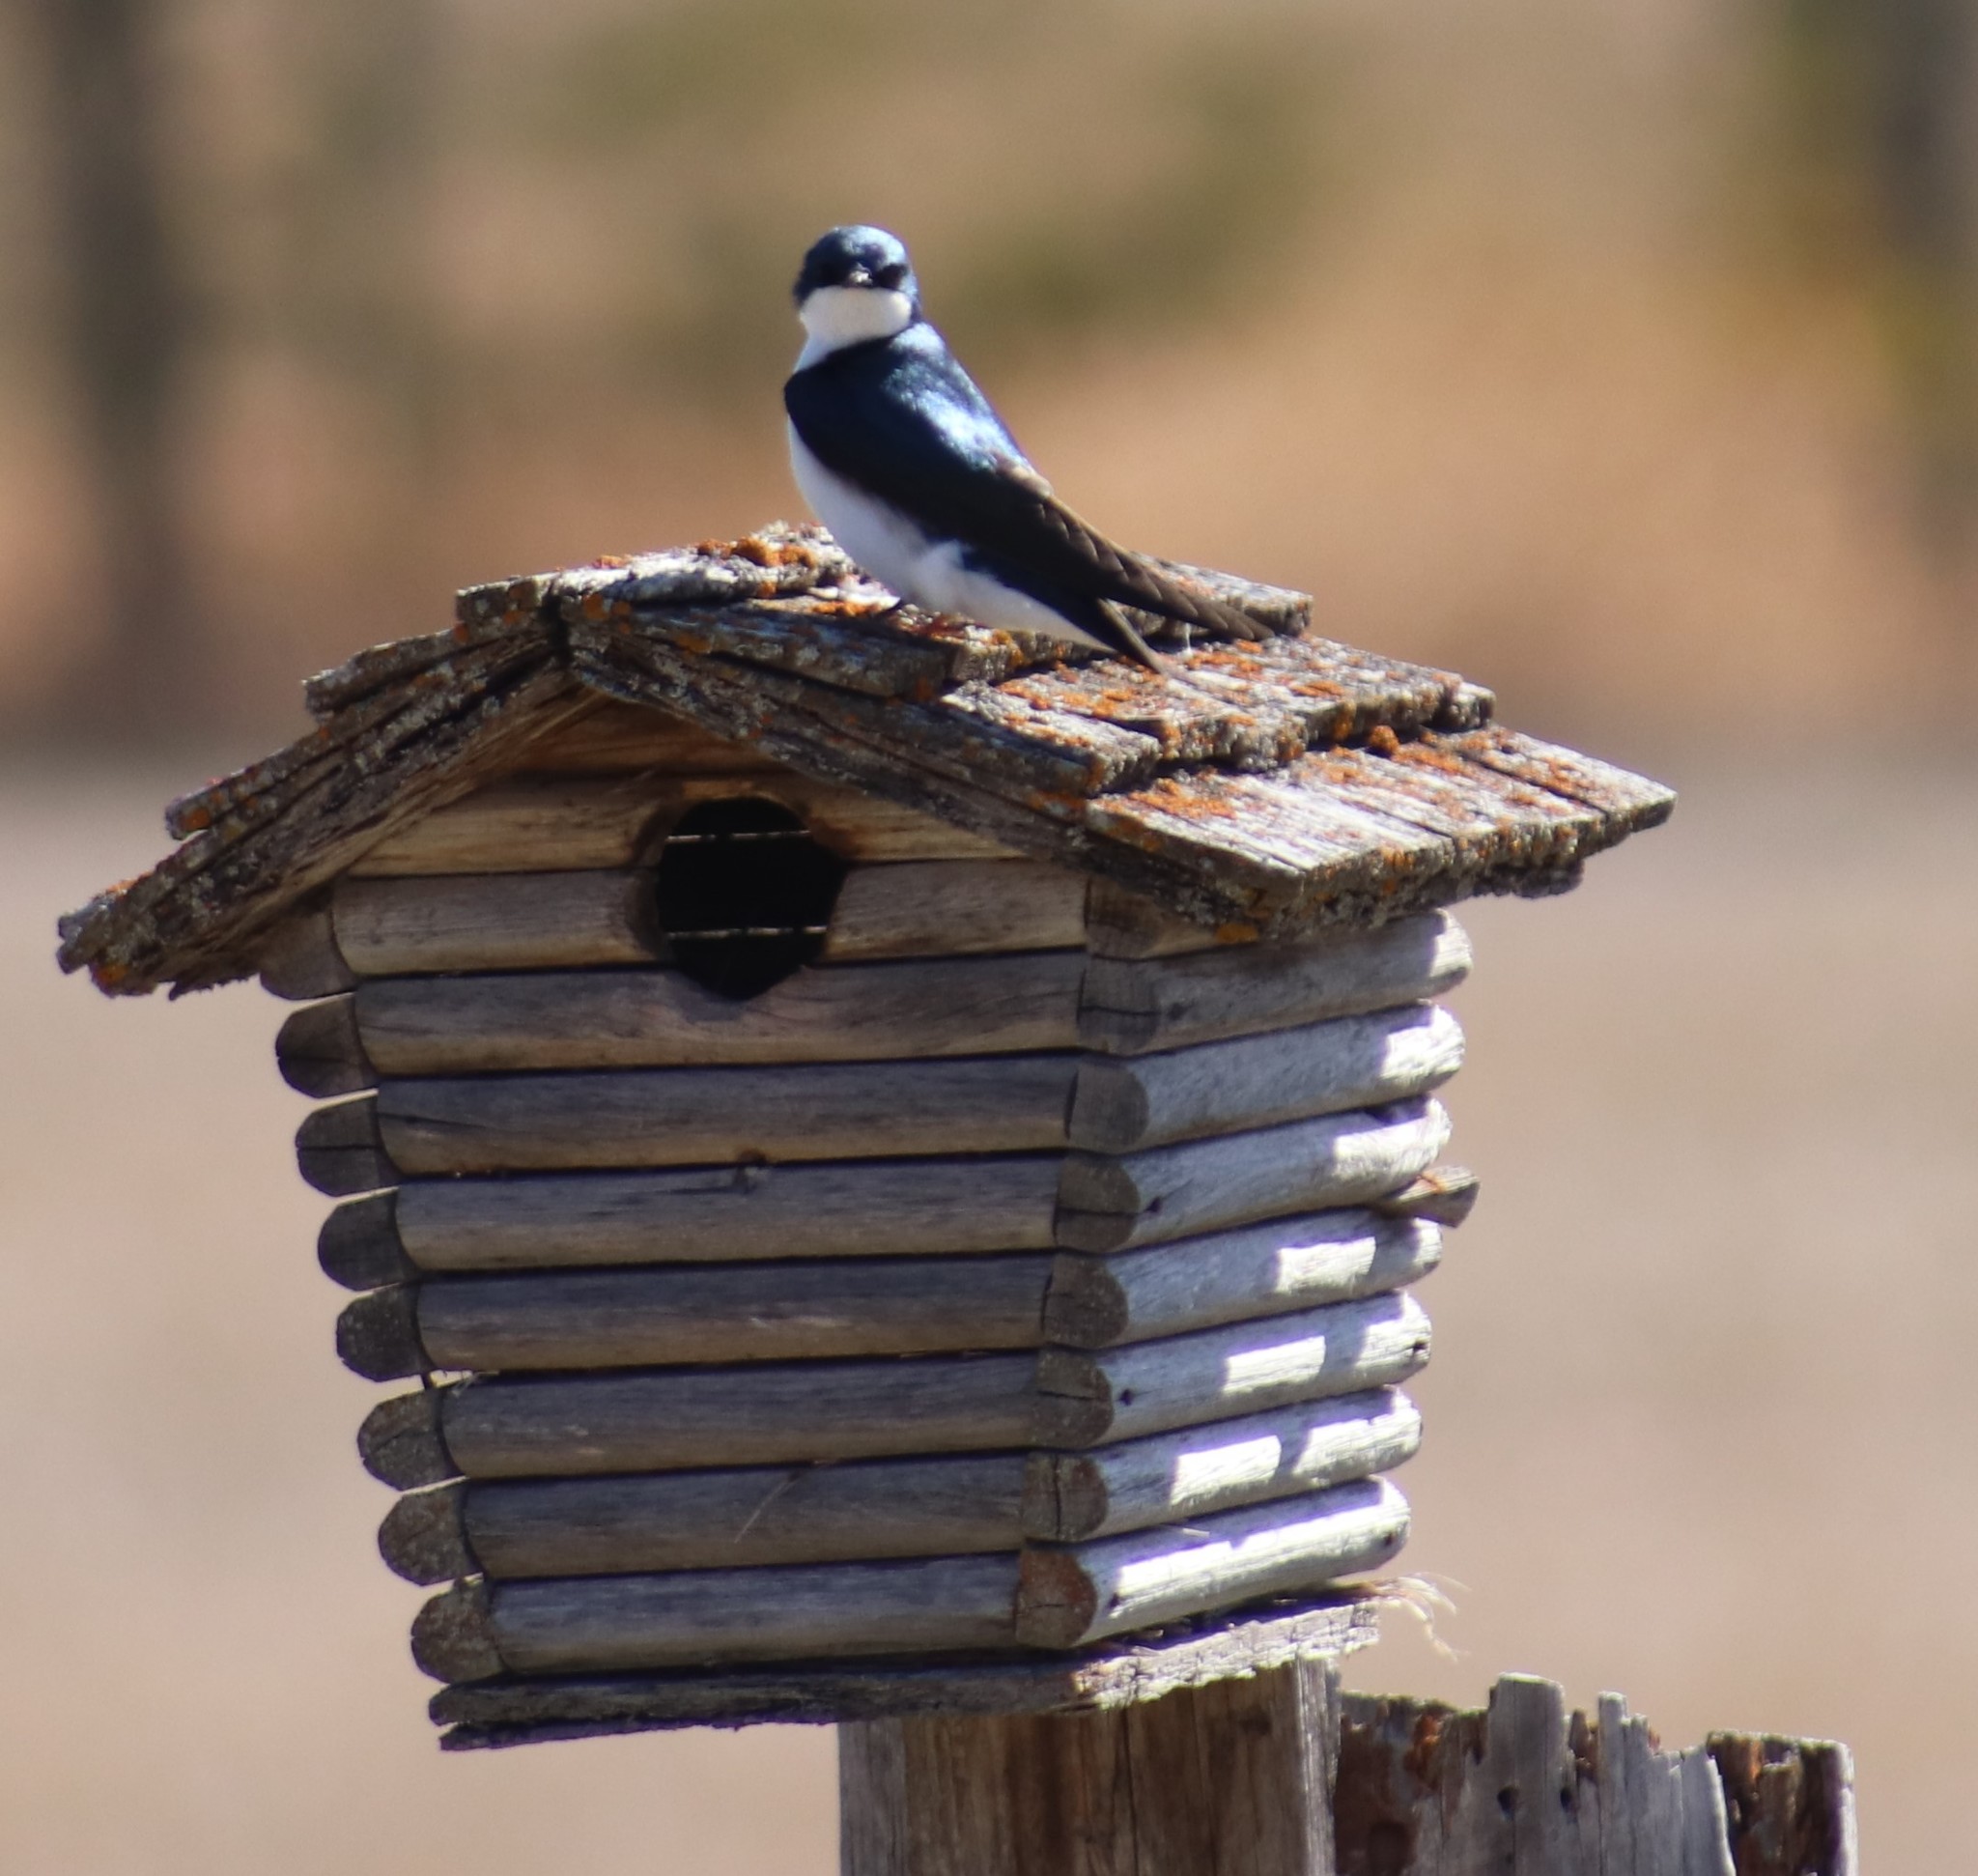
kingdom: Animalia
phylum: Chordata
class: Aves
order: Passeriformes
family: Hirundinidae
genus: Tachycineta
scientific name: Tachycineta bicolor
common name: Tree swallow
